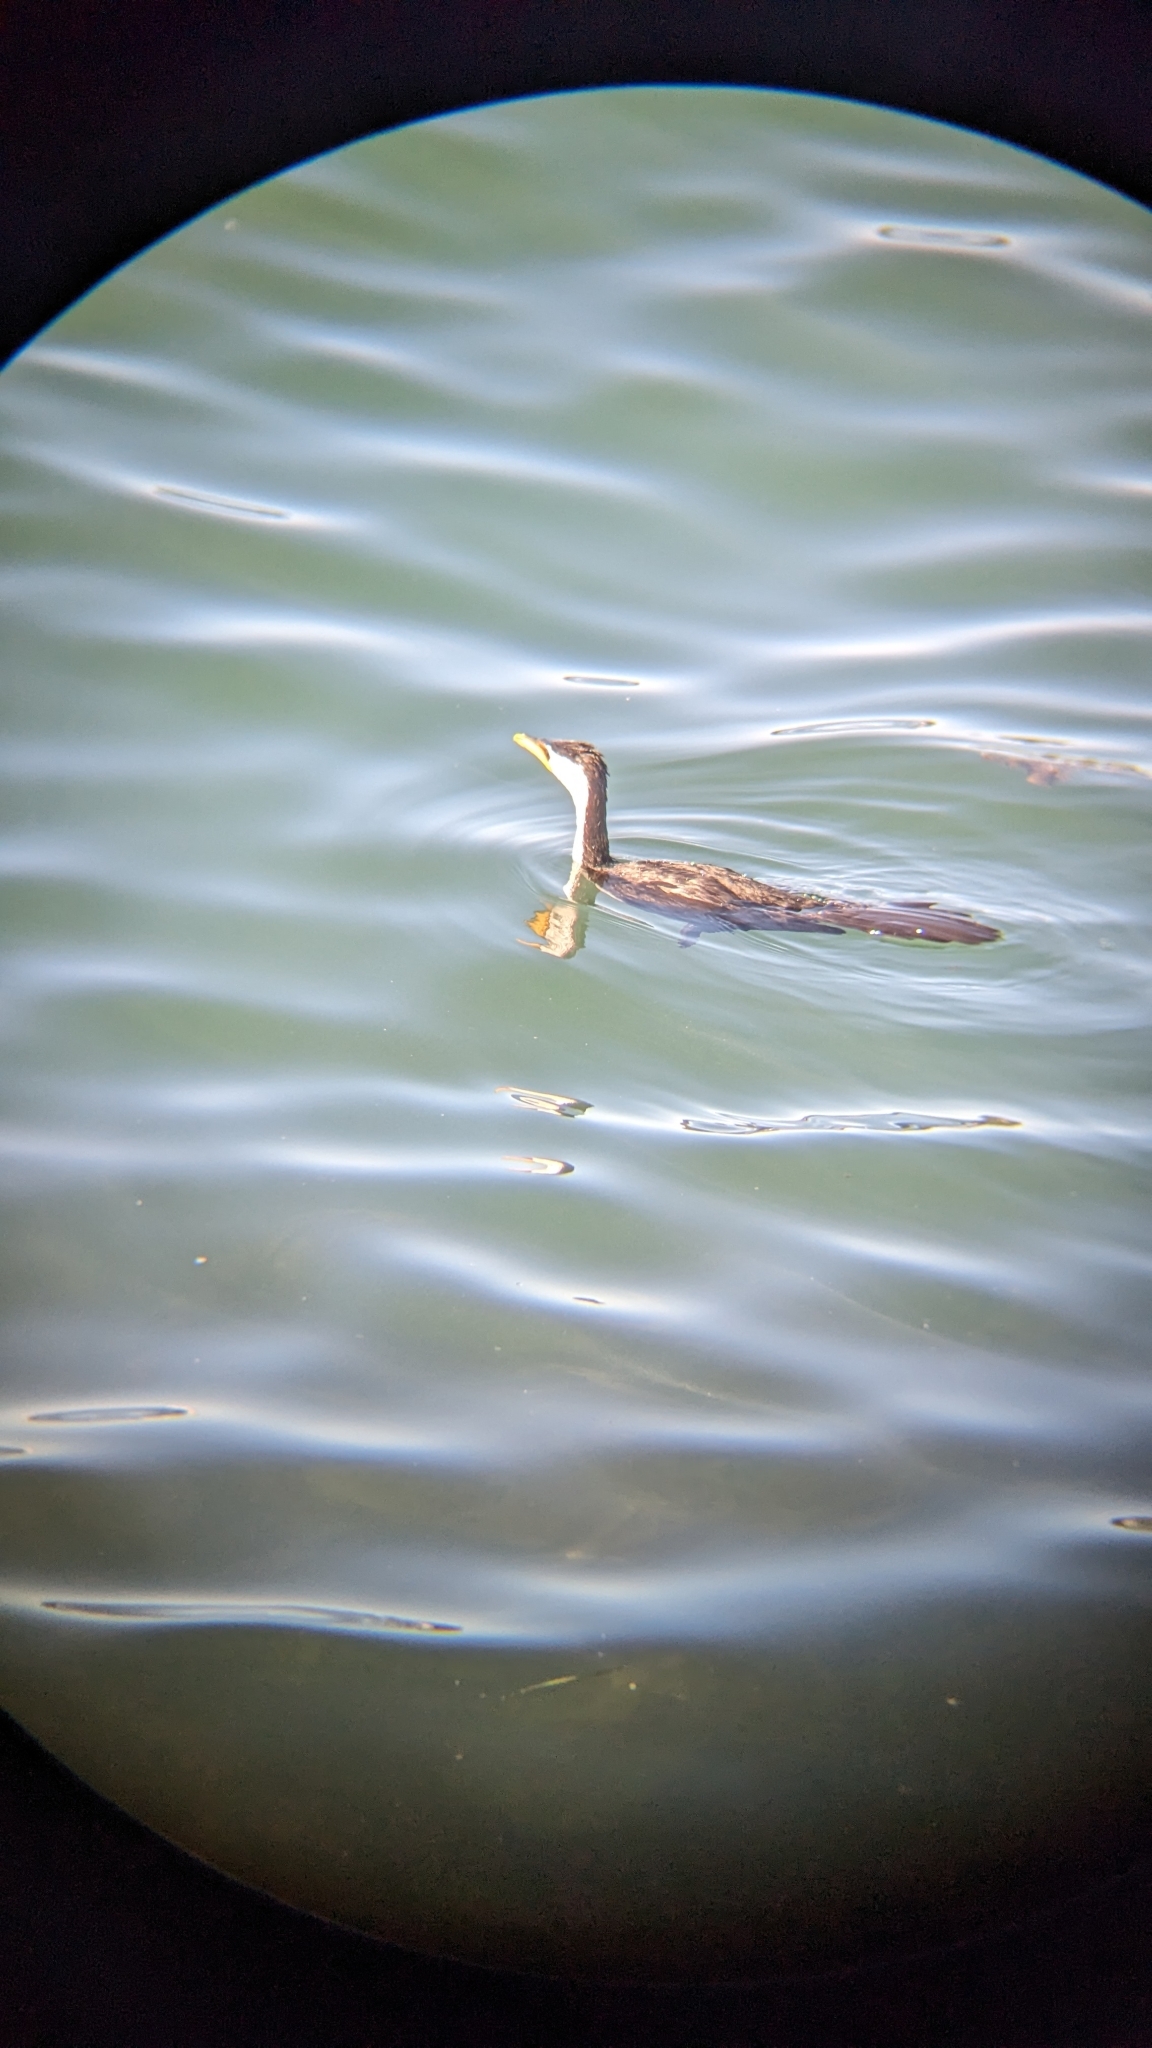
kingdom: Animalia
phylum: Chordata
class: Aves
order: Suliformes
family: Phalacrocoracidae
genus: Microcarbo
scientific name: Microcarbo melanoleucos
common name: Little pied cormorant
